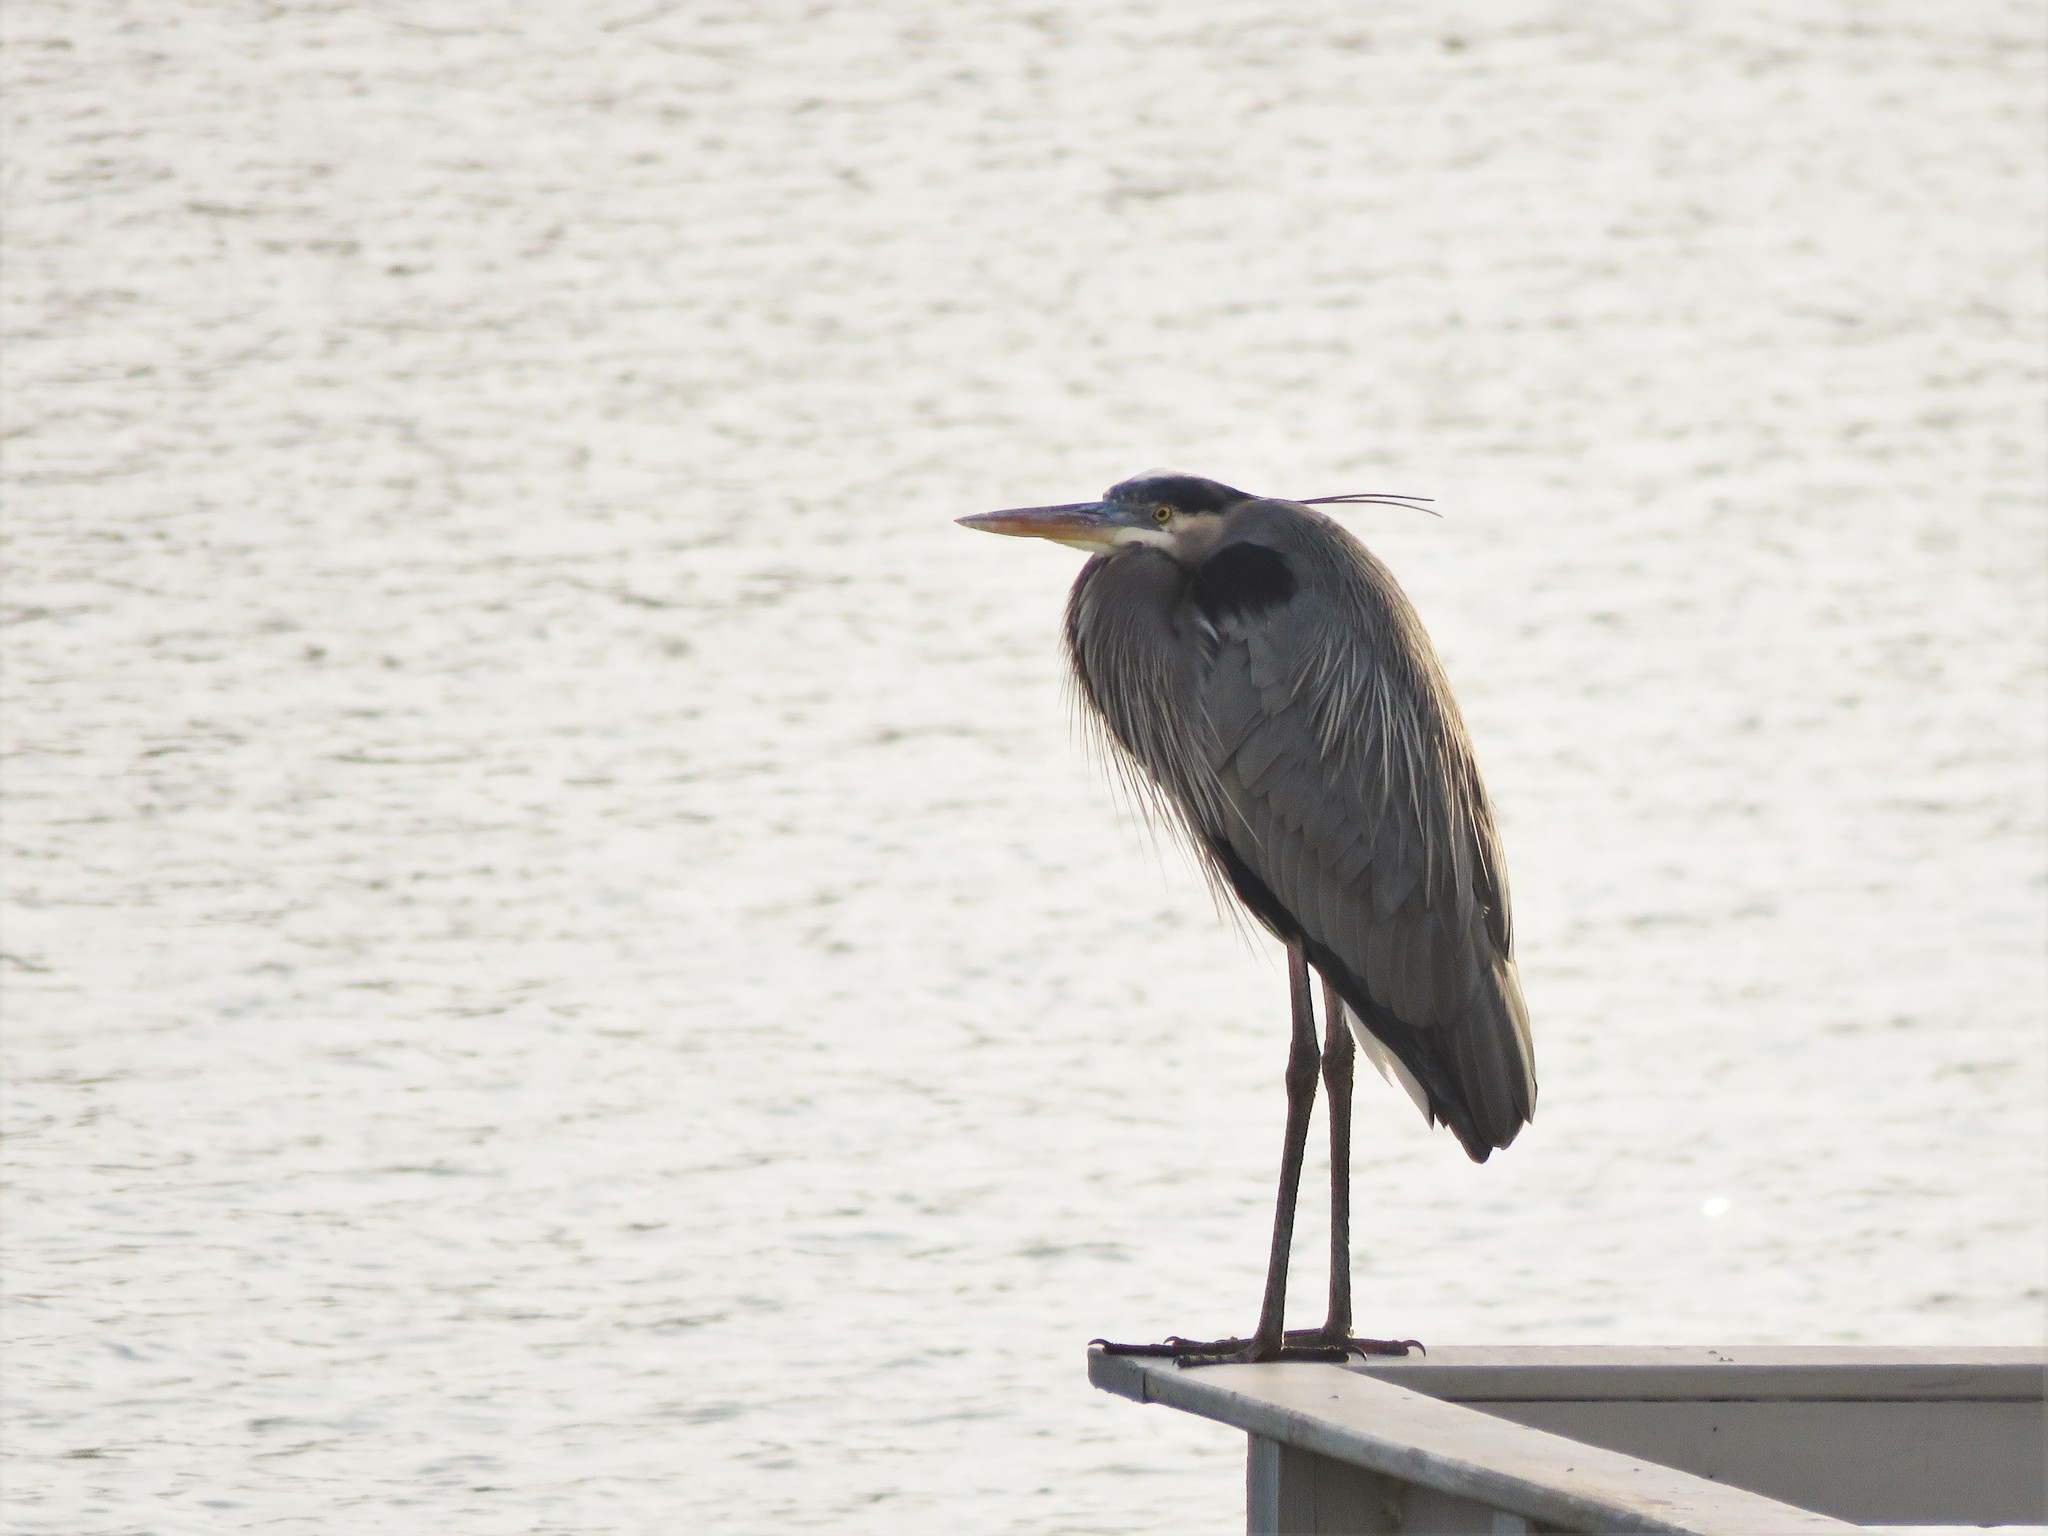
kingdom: Animalia
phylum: Chordata
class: Aves
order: Pelecaniformes
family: Ardeidae
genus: Ardea
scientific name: Ardea herodias
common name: Great blue heron
